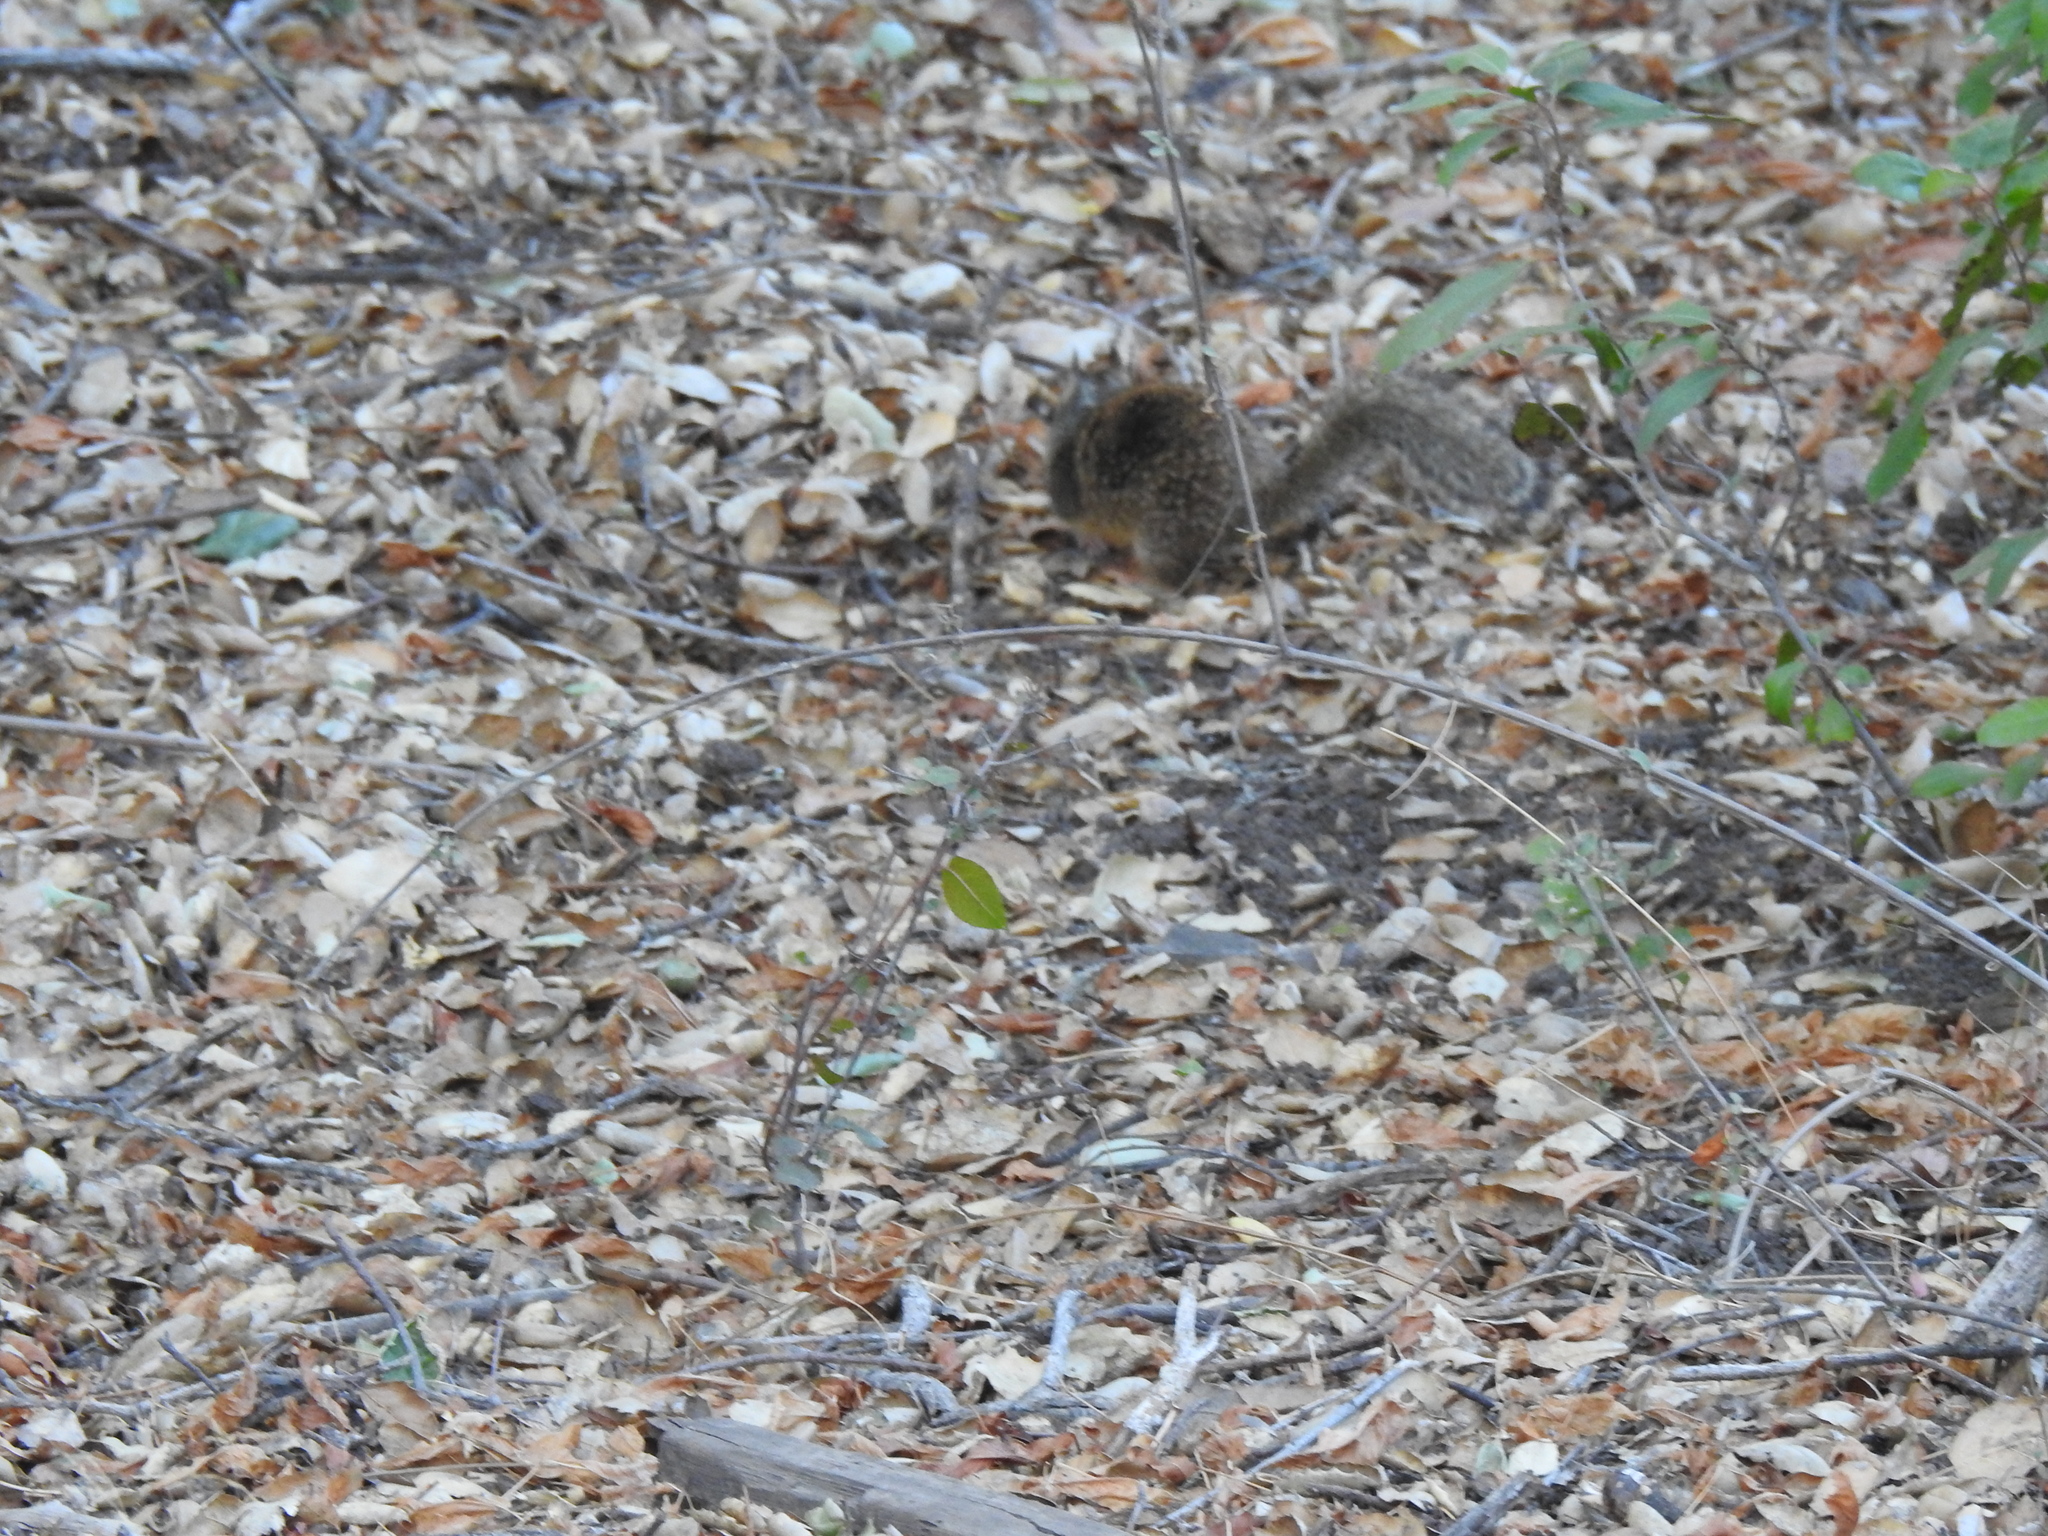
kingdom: Animalia
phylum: Chordata
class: Mammalia
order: Rodentia
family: Sciuridae
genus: Otospermophilus
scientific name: Otospermophilus beecheyi
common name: California ground squirrel
